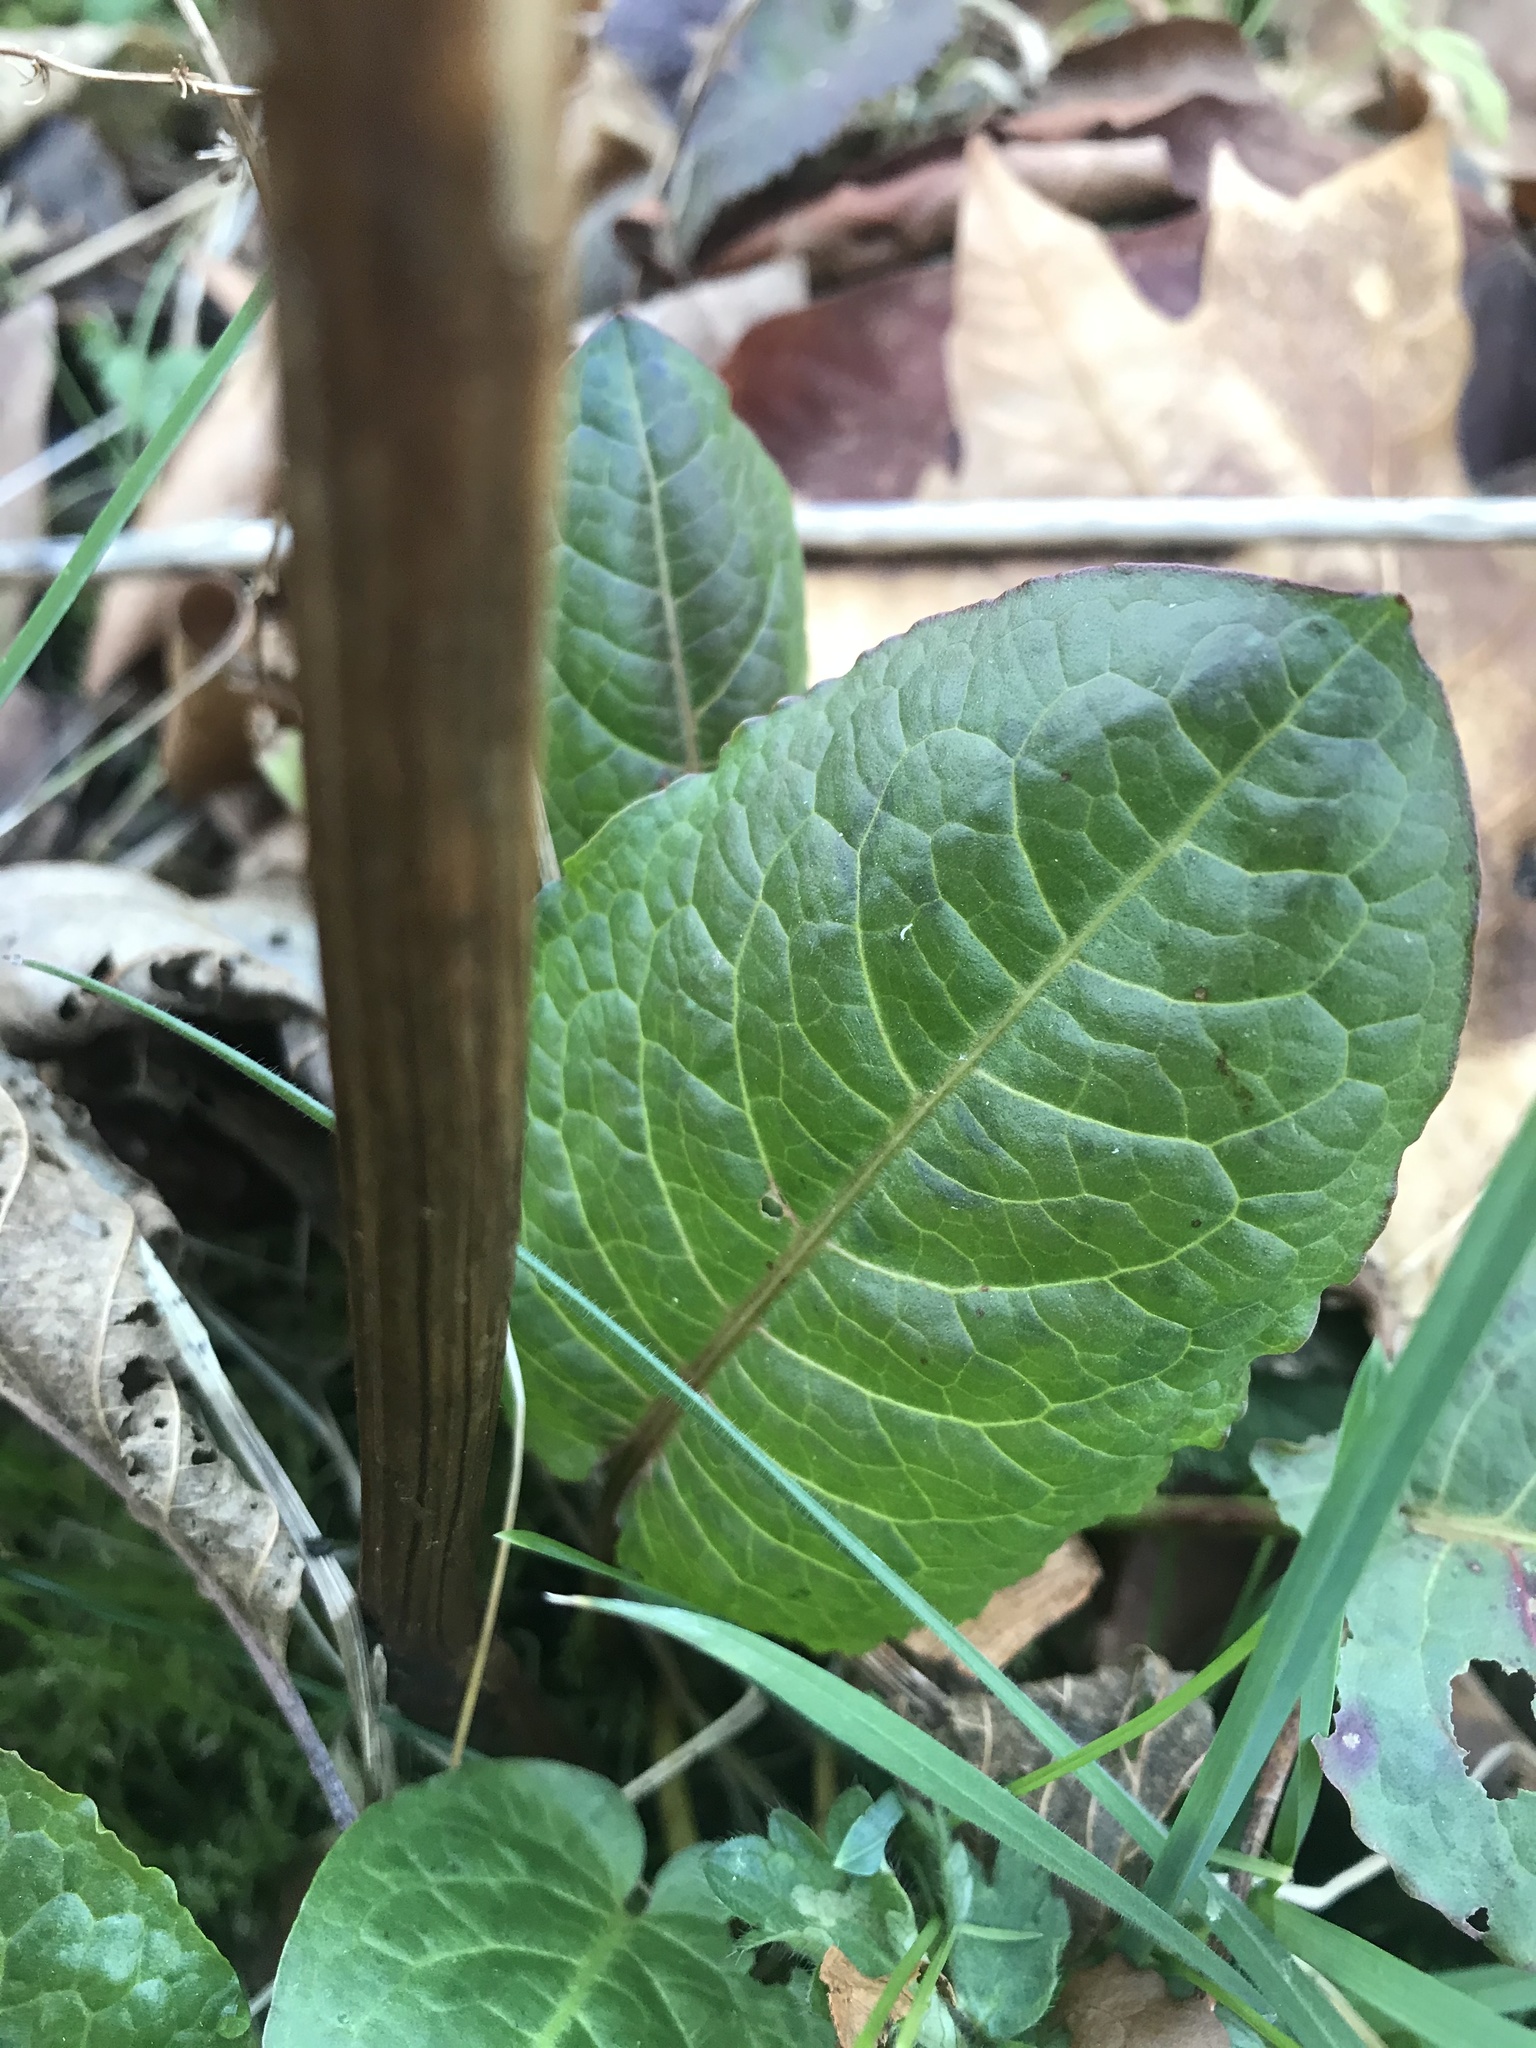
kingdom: Plantae
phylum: Tracheophyta
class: Magnoliopsida
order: Caryophyllales
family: Polygonaceae
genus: Rumex
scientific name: Rumex obtusifolius
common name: Bitter dock
